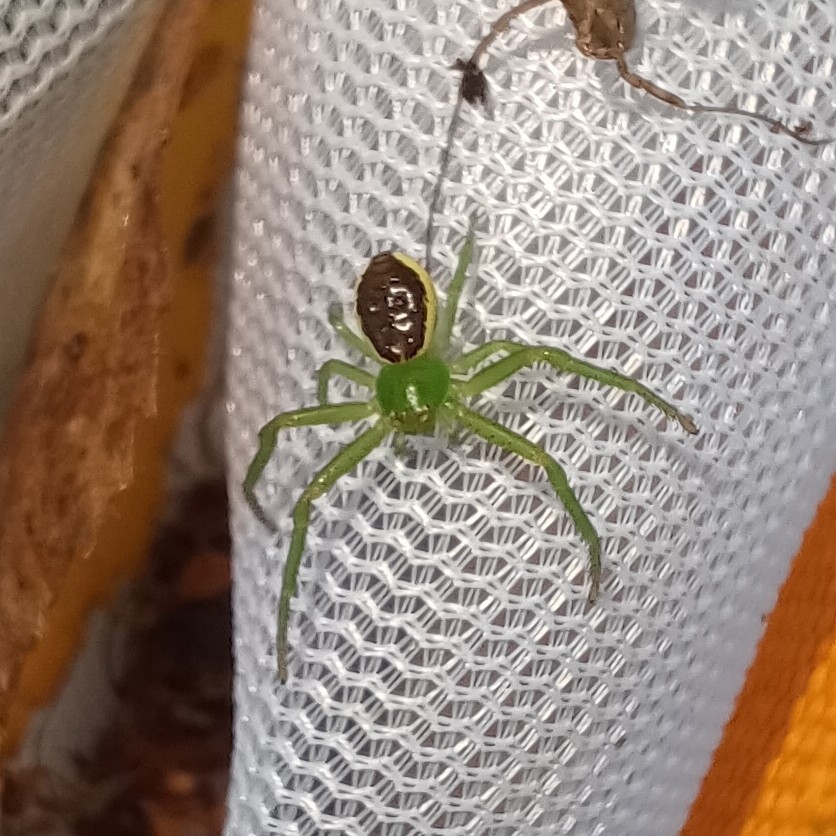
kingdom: Animalia
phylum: Arthropoda
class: Arachnida
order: Araneae
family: Thomisidae
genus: Diaea
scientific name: Diaea dorsata
